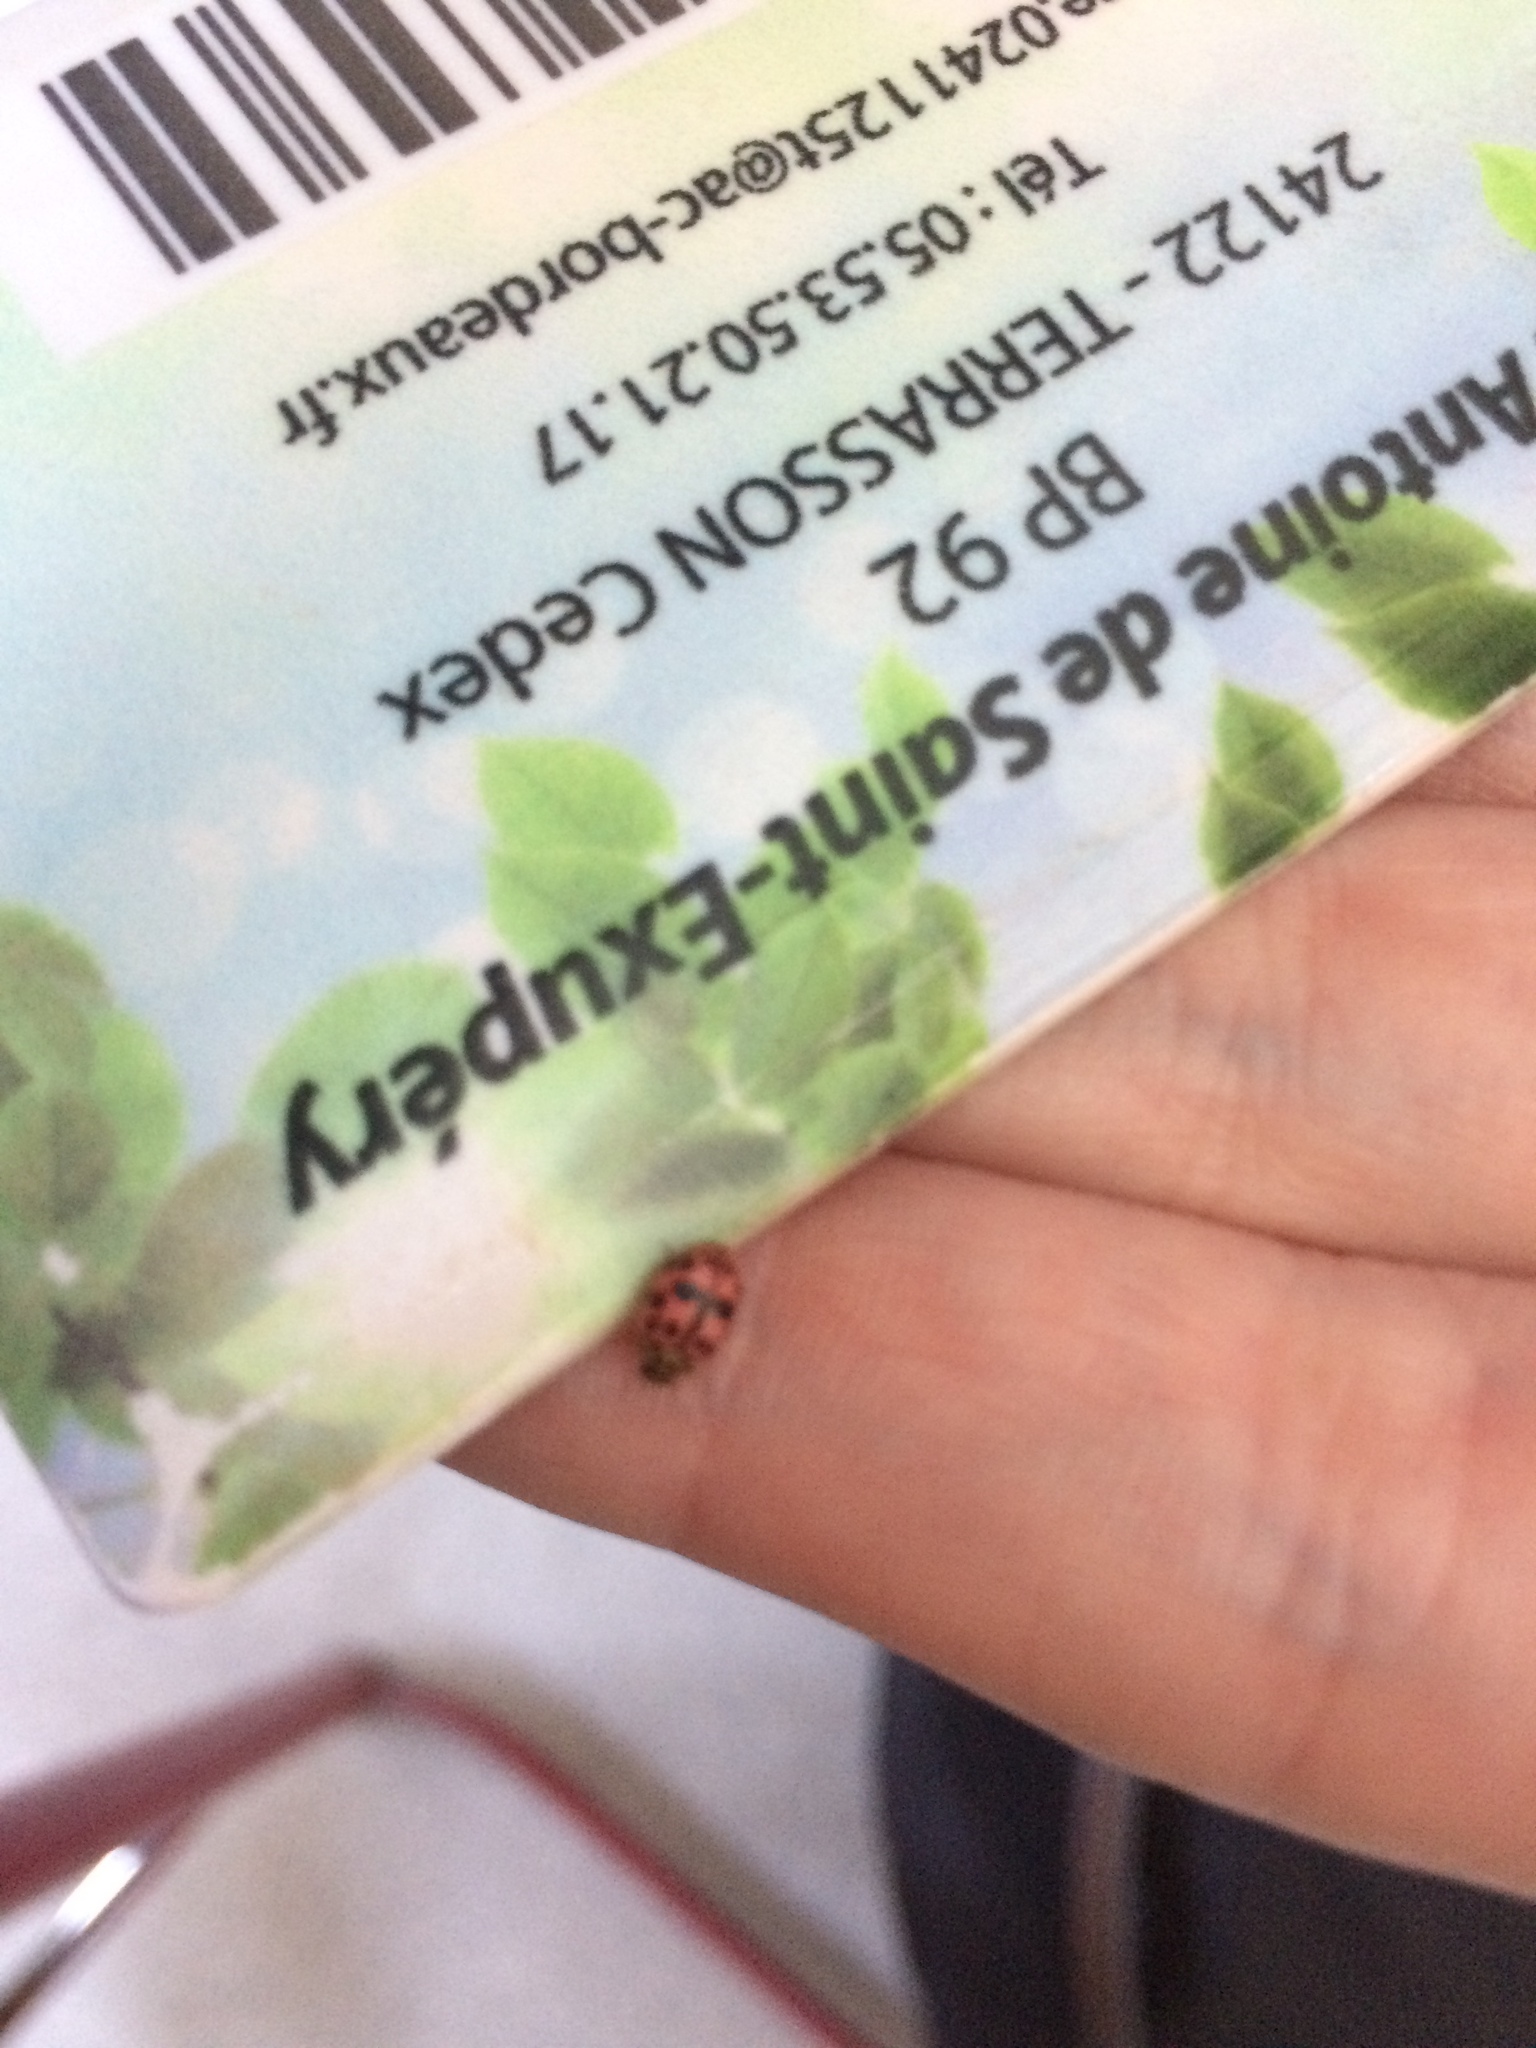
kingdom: Animalia
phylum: Arthropoda
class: Insecta
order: Coleoptera
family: Coccinellidae
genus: Oenopia
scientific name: Oenopia conglobata
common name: Ladybird beetle
